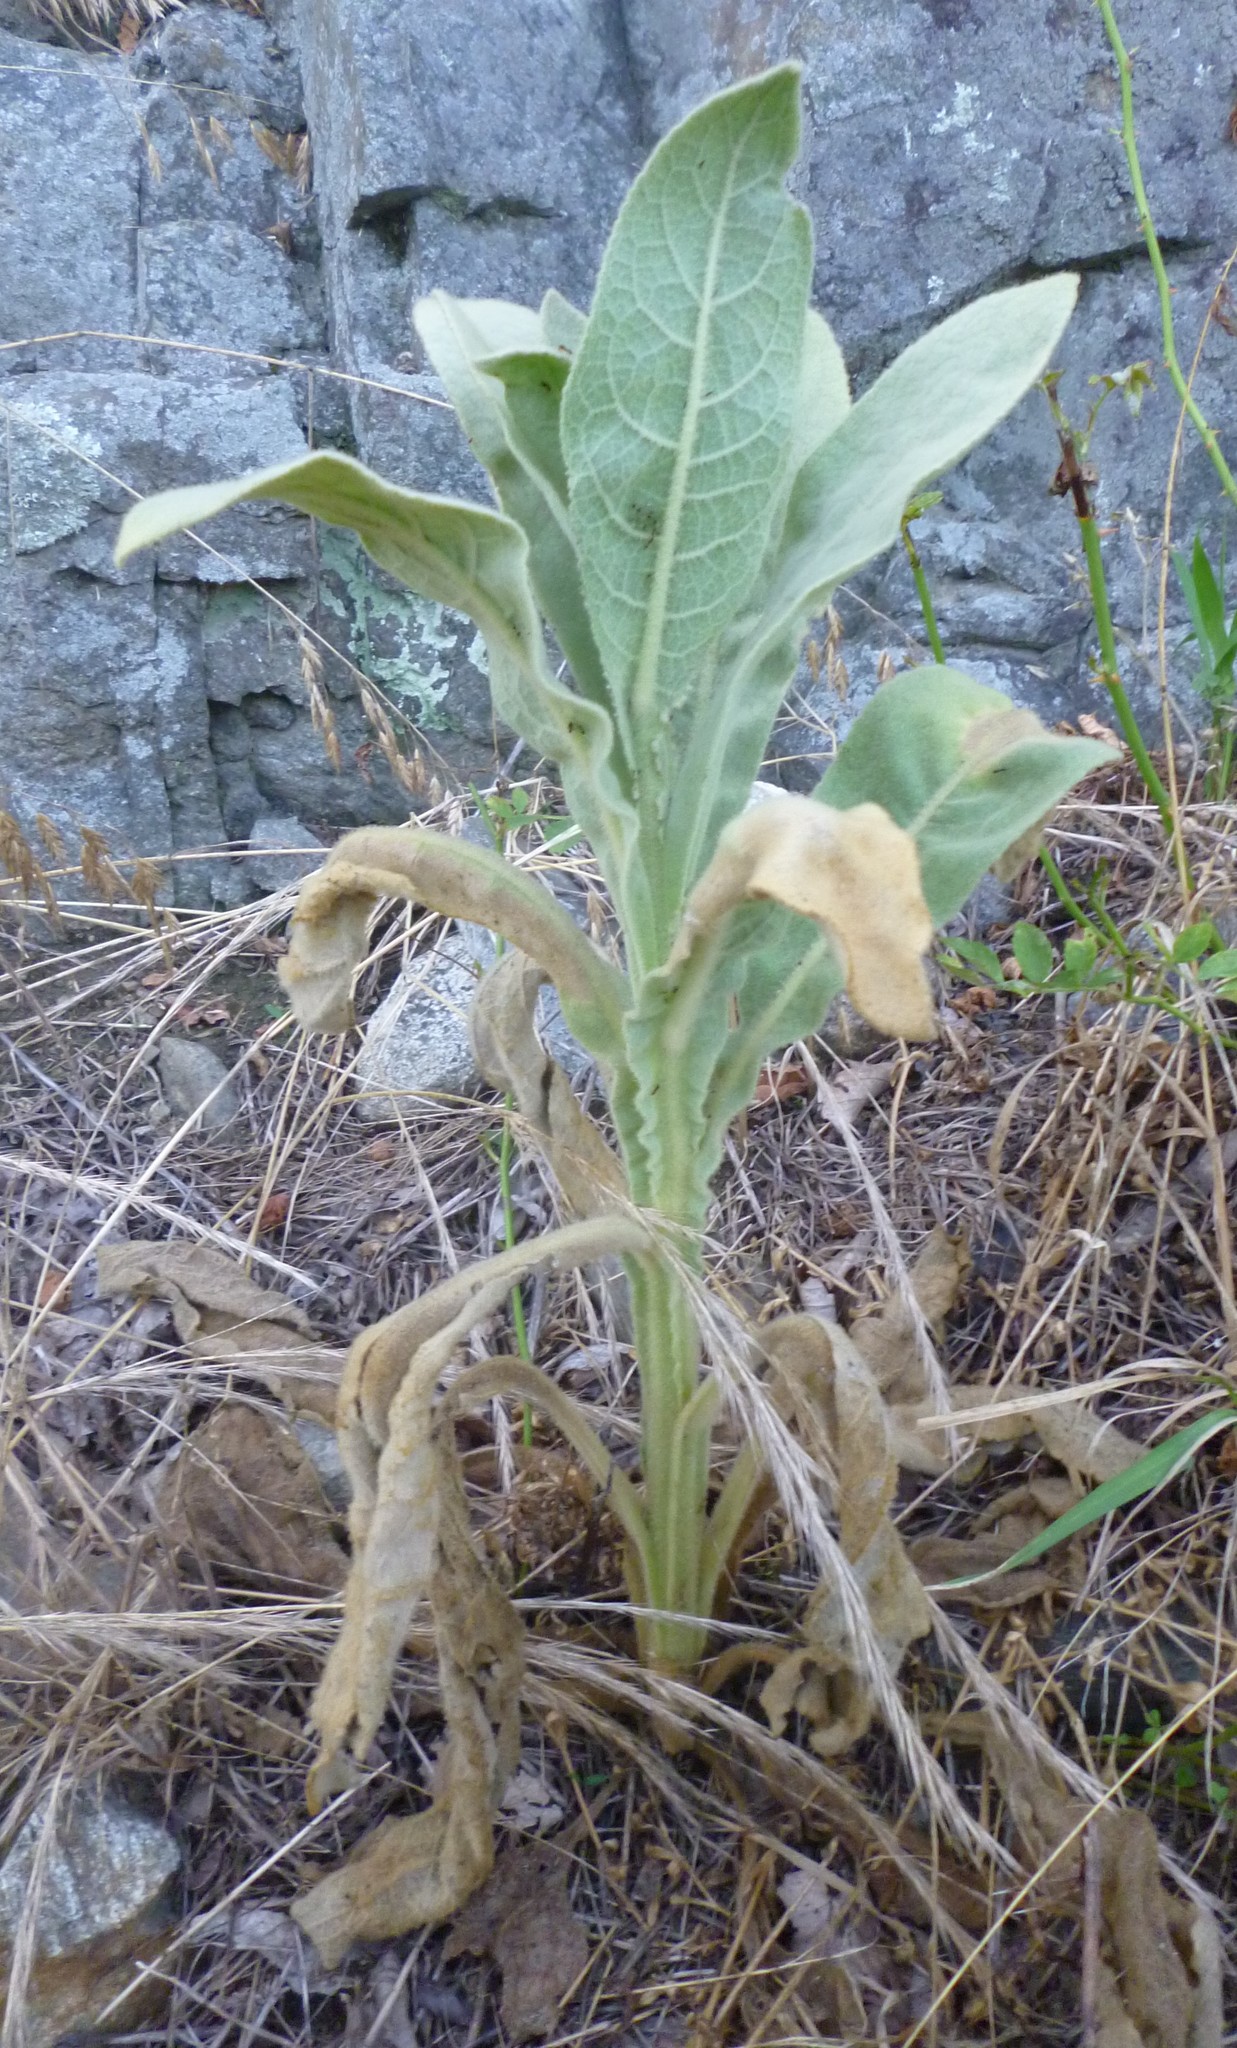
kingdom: Plantae
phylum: Tracheophyta
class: Magnoliopsida
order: Lamiales
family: Scrophulariaceae
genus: Verbascum
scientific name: Verbascum thapsus
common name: Common mullein
